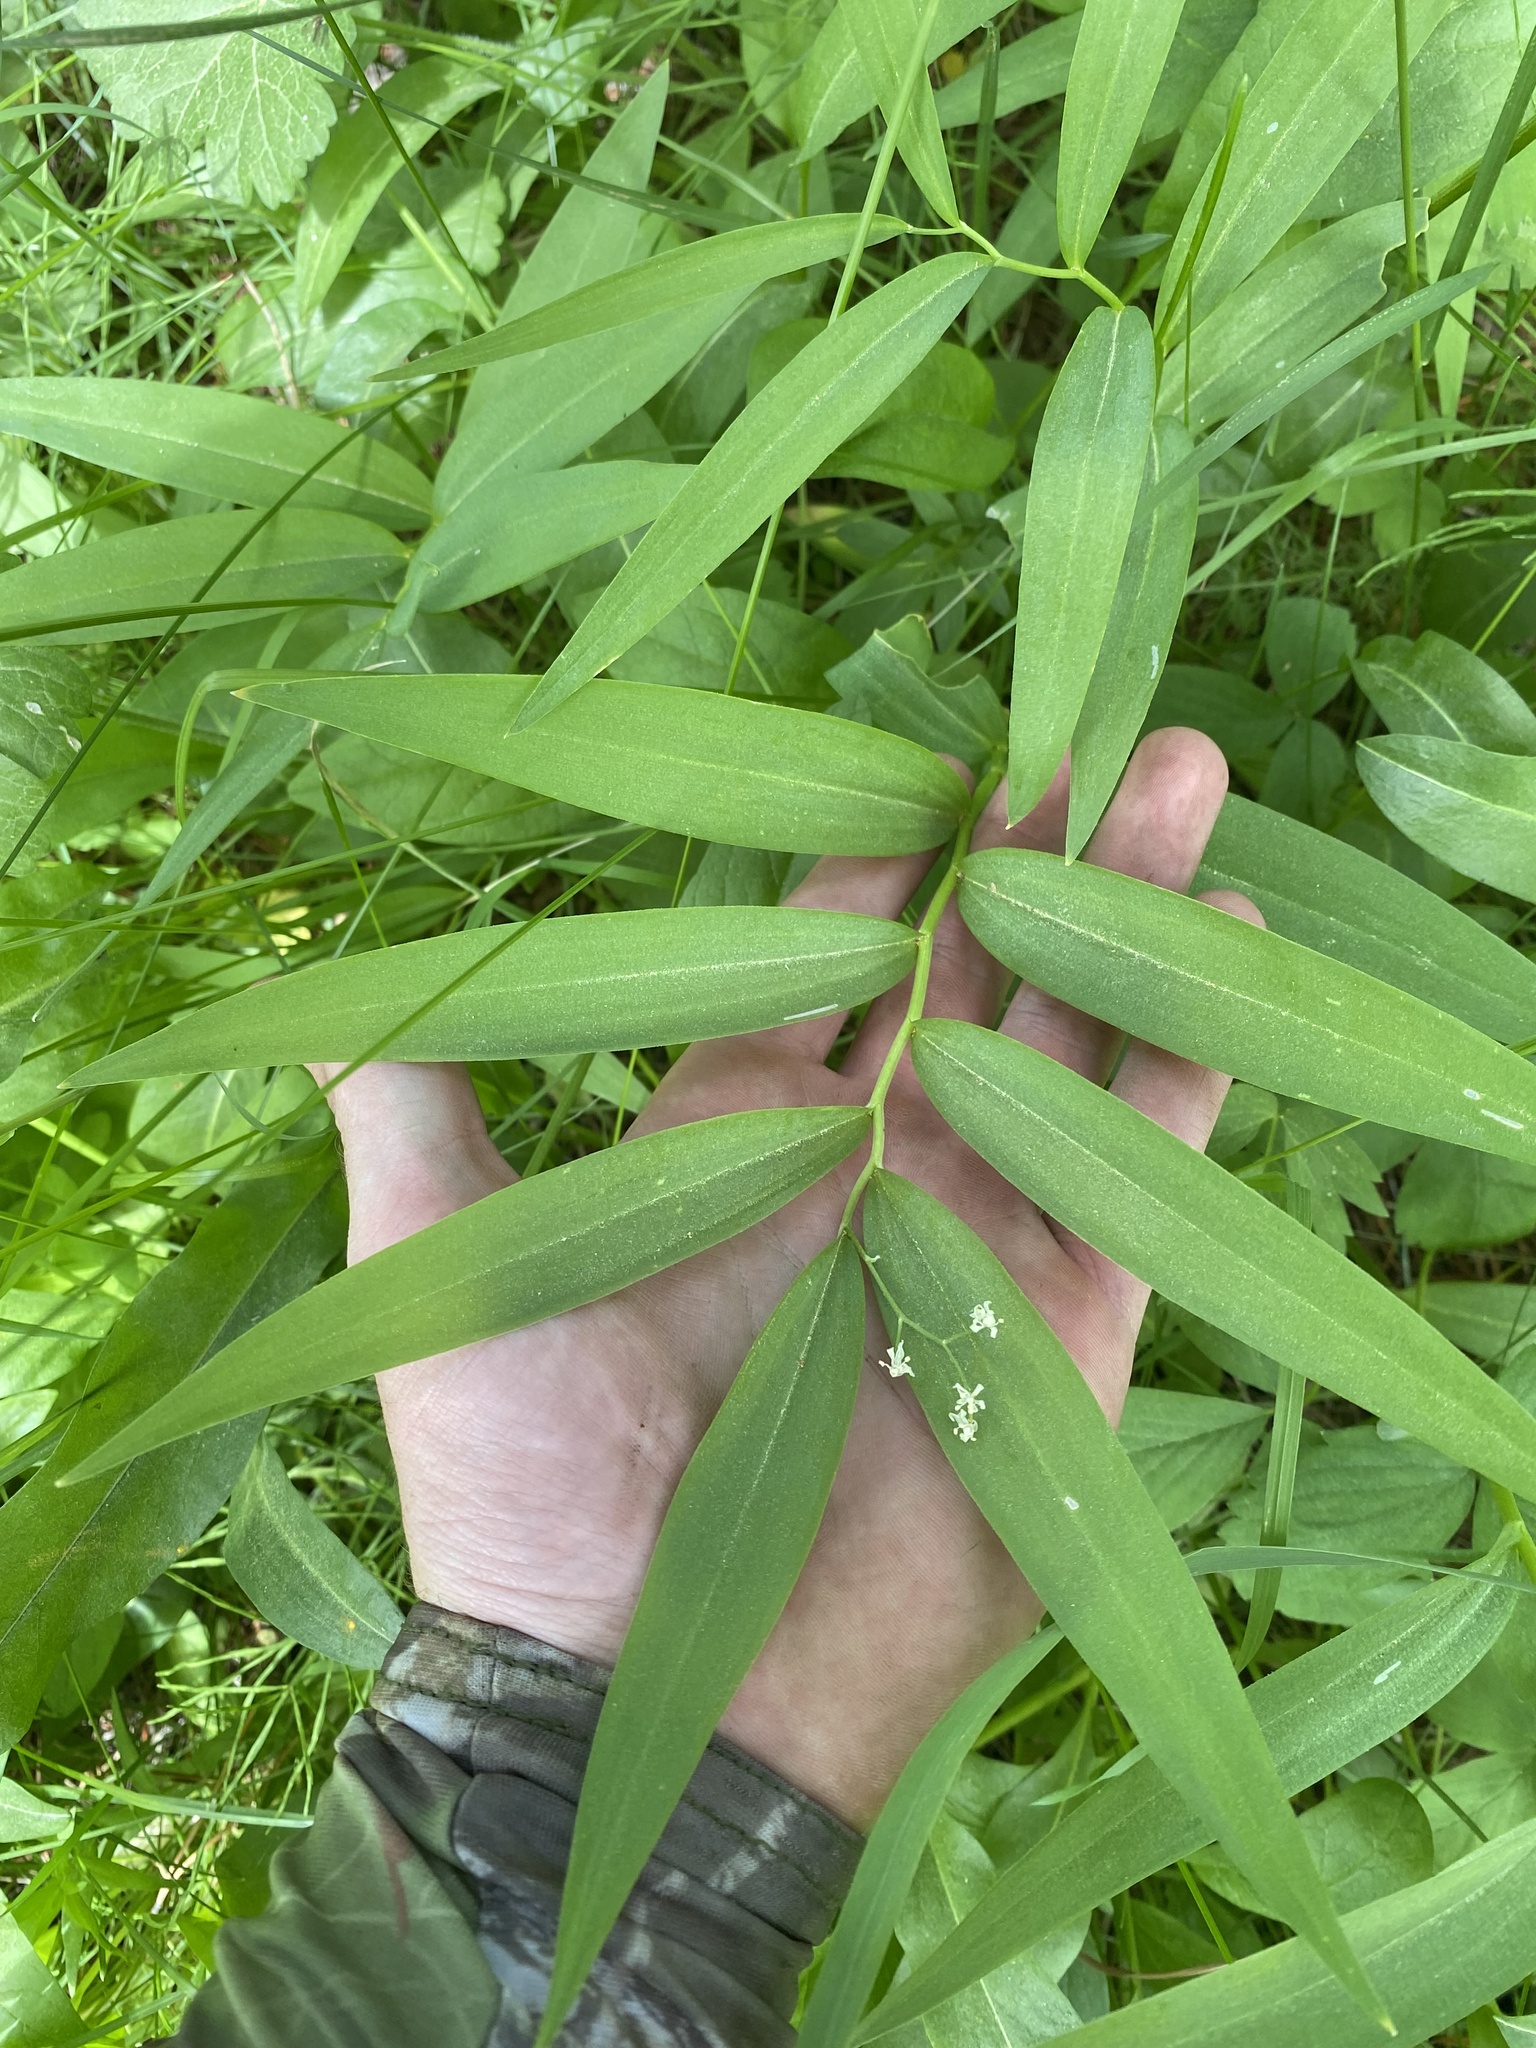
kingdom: Plantae
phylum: Tracheophyta
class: Liliopsida
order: Asparagales
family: Asparagaceae
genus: Maianthemum
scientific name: Maianthemum stellatum
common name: Little false solomon's seal
